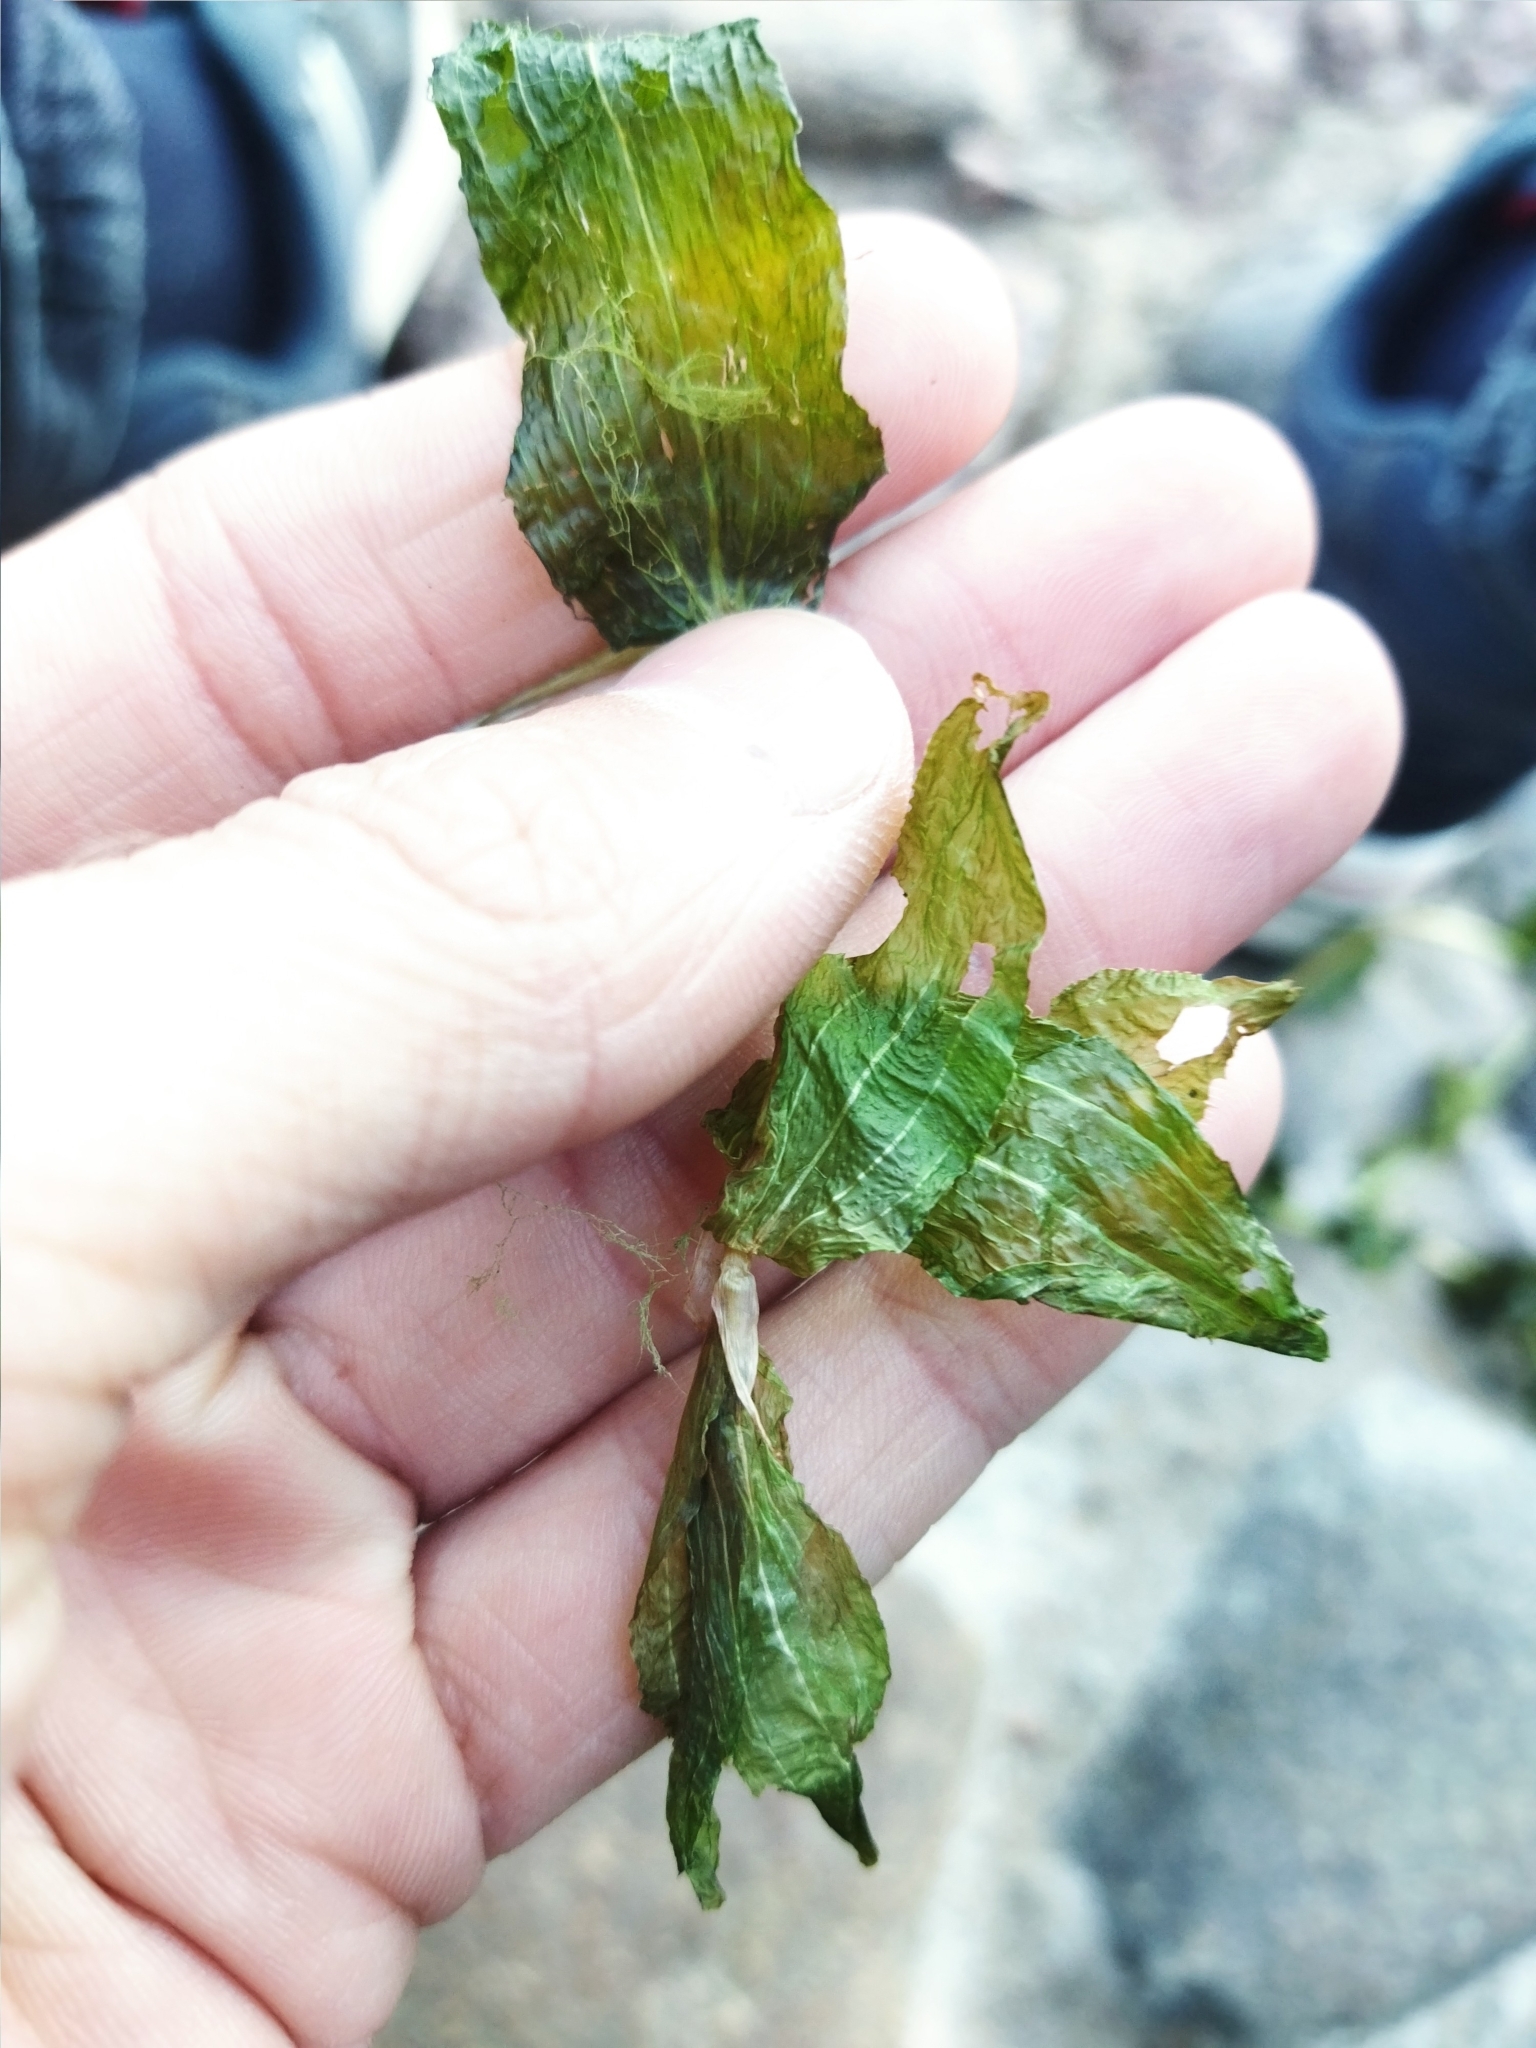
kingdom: Plantae
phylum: Tracheophyta
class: Liliopsida
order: Alismatales
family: Potamogetonaceae
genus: Potamogeton
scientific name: Potamogeton perfoliatus
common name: Perfoliate pondweed
